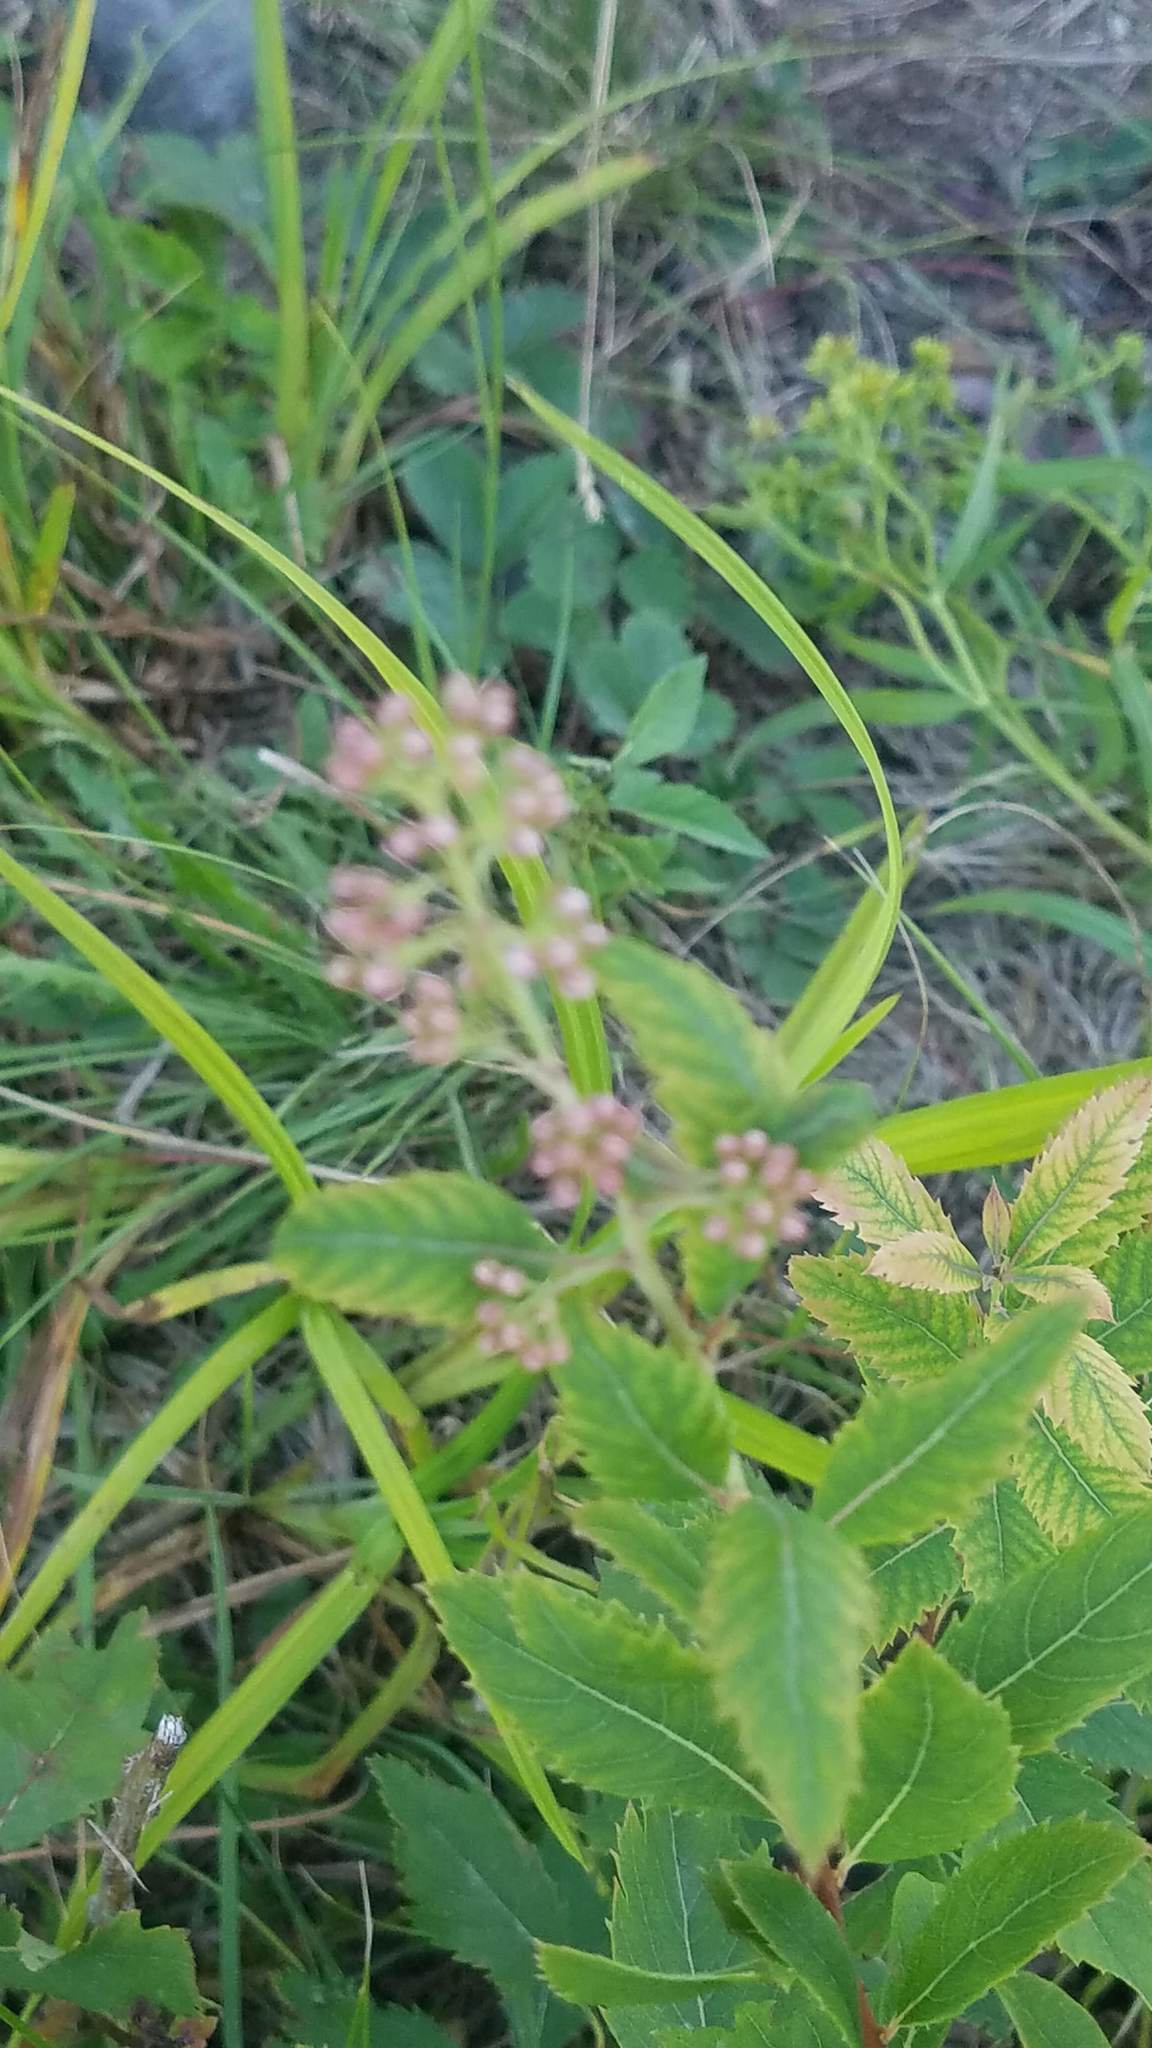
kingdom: Plantae
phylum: Tracheophyta
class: Magnoliopsida
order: Rosales
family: Rosaceae
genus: Spiraea
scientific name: Spiraea alba
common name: Pale bridewort
